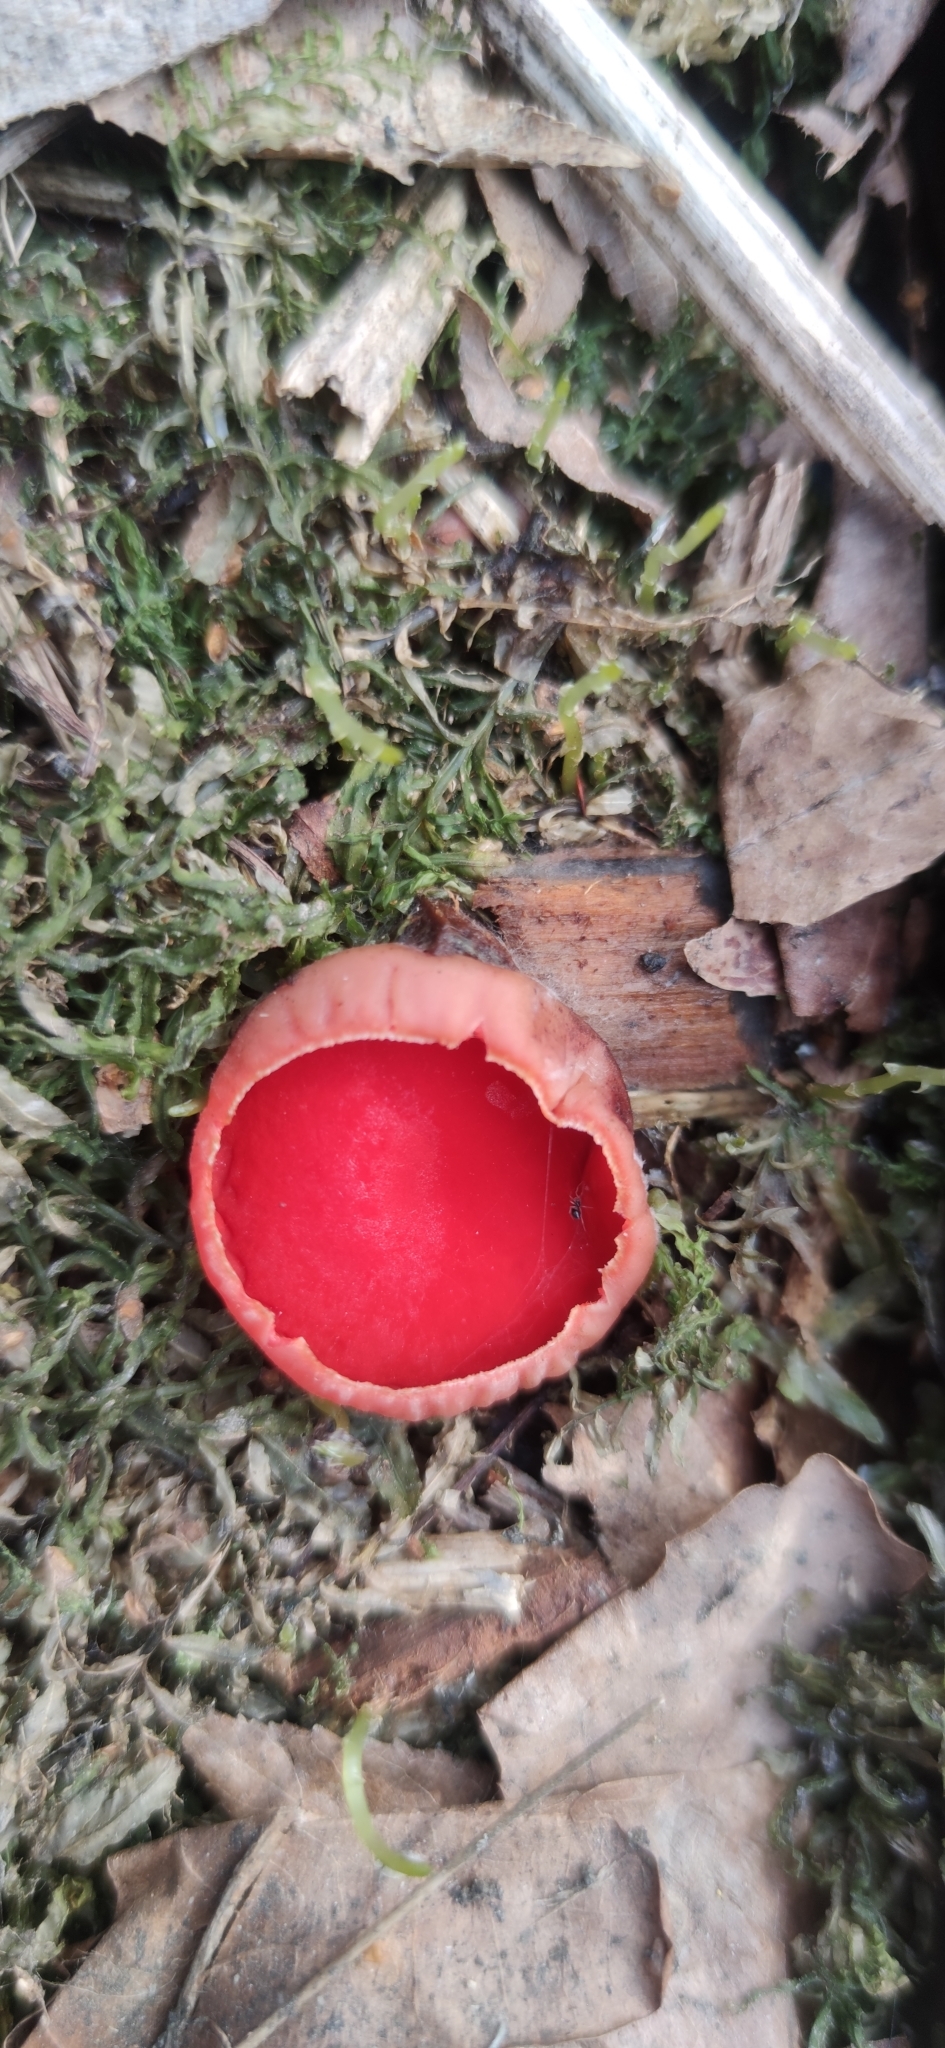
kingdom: Fungi
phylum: Ascomycota
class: Pezizomycetes
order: Pezizales
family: Sarcoscyphaceae
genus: Sarcoscypha
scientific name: Sarcoscypha austriaca
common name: Scarlet elfcup
